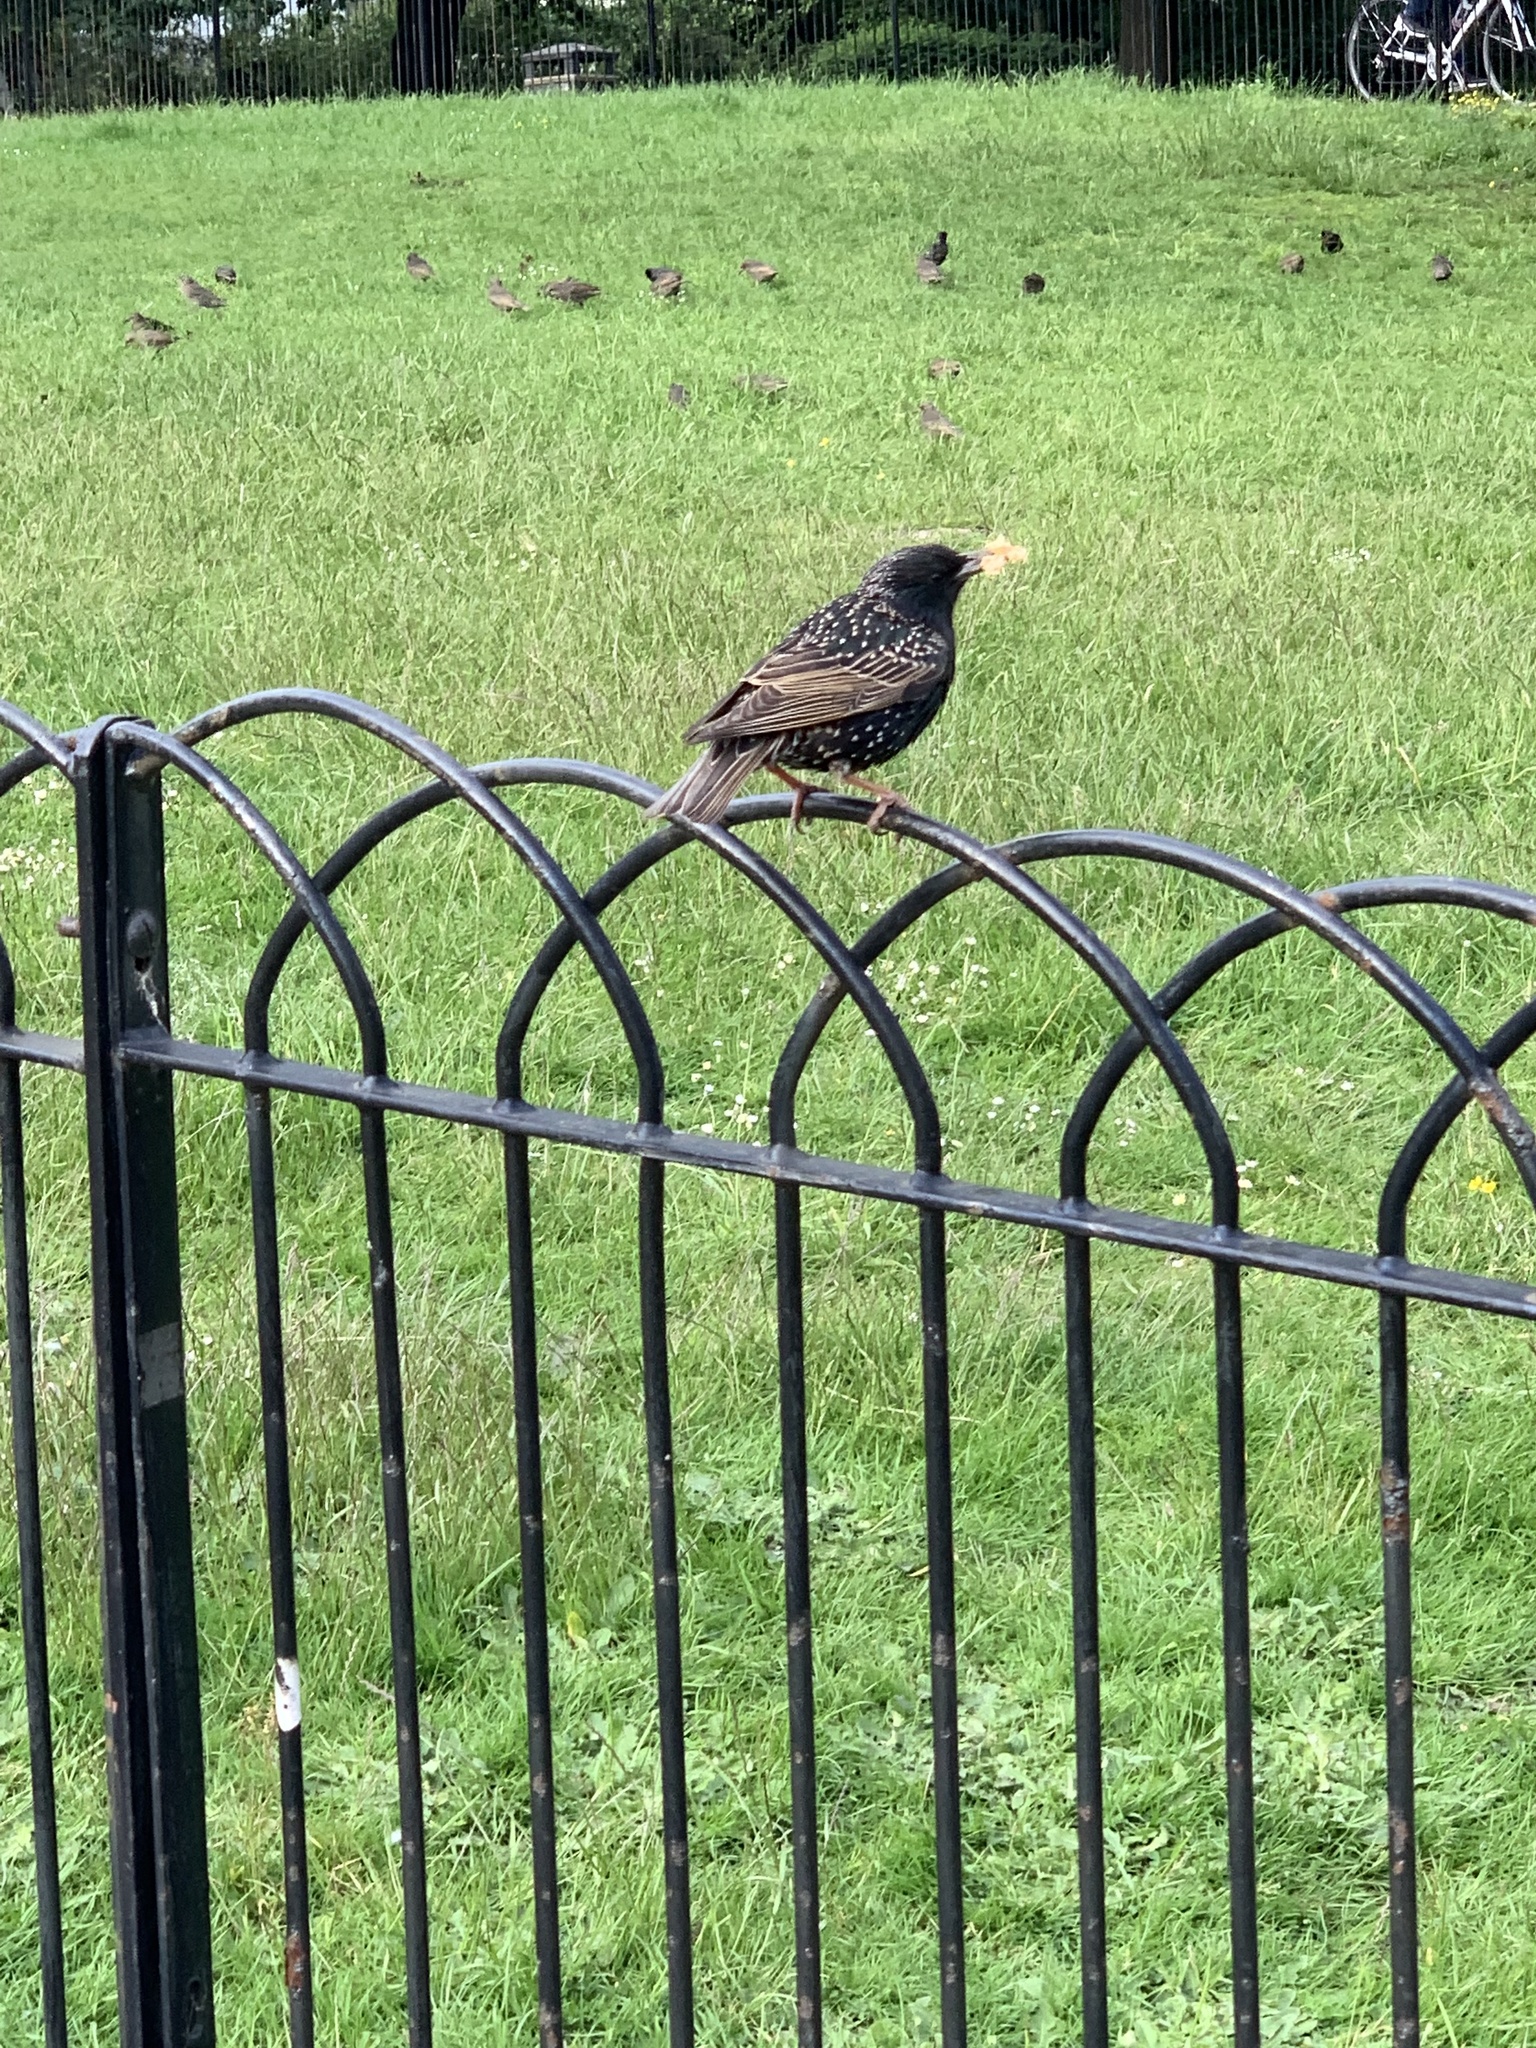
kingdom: Animalia
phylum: Chordata
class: Aves
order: Passeriformes
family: Sturnidae
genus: Sturnus
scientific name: Sturnus vulgaris
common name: Common starling
